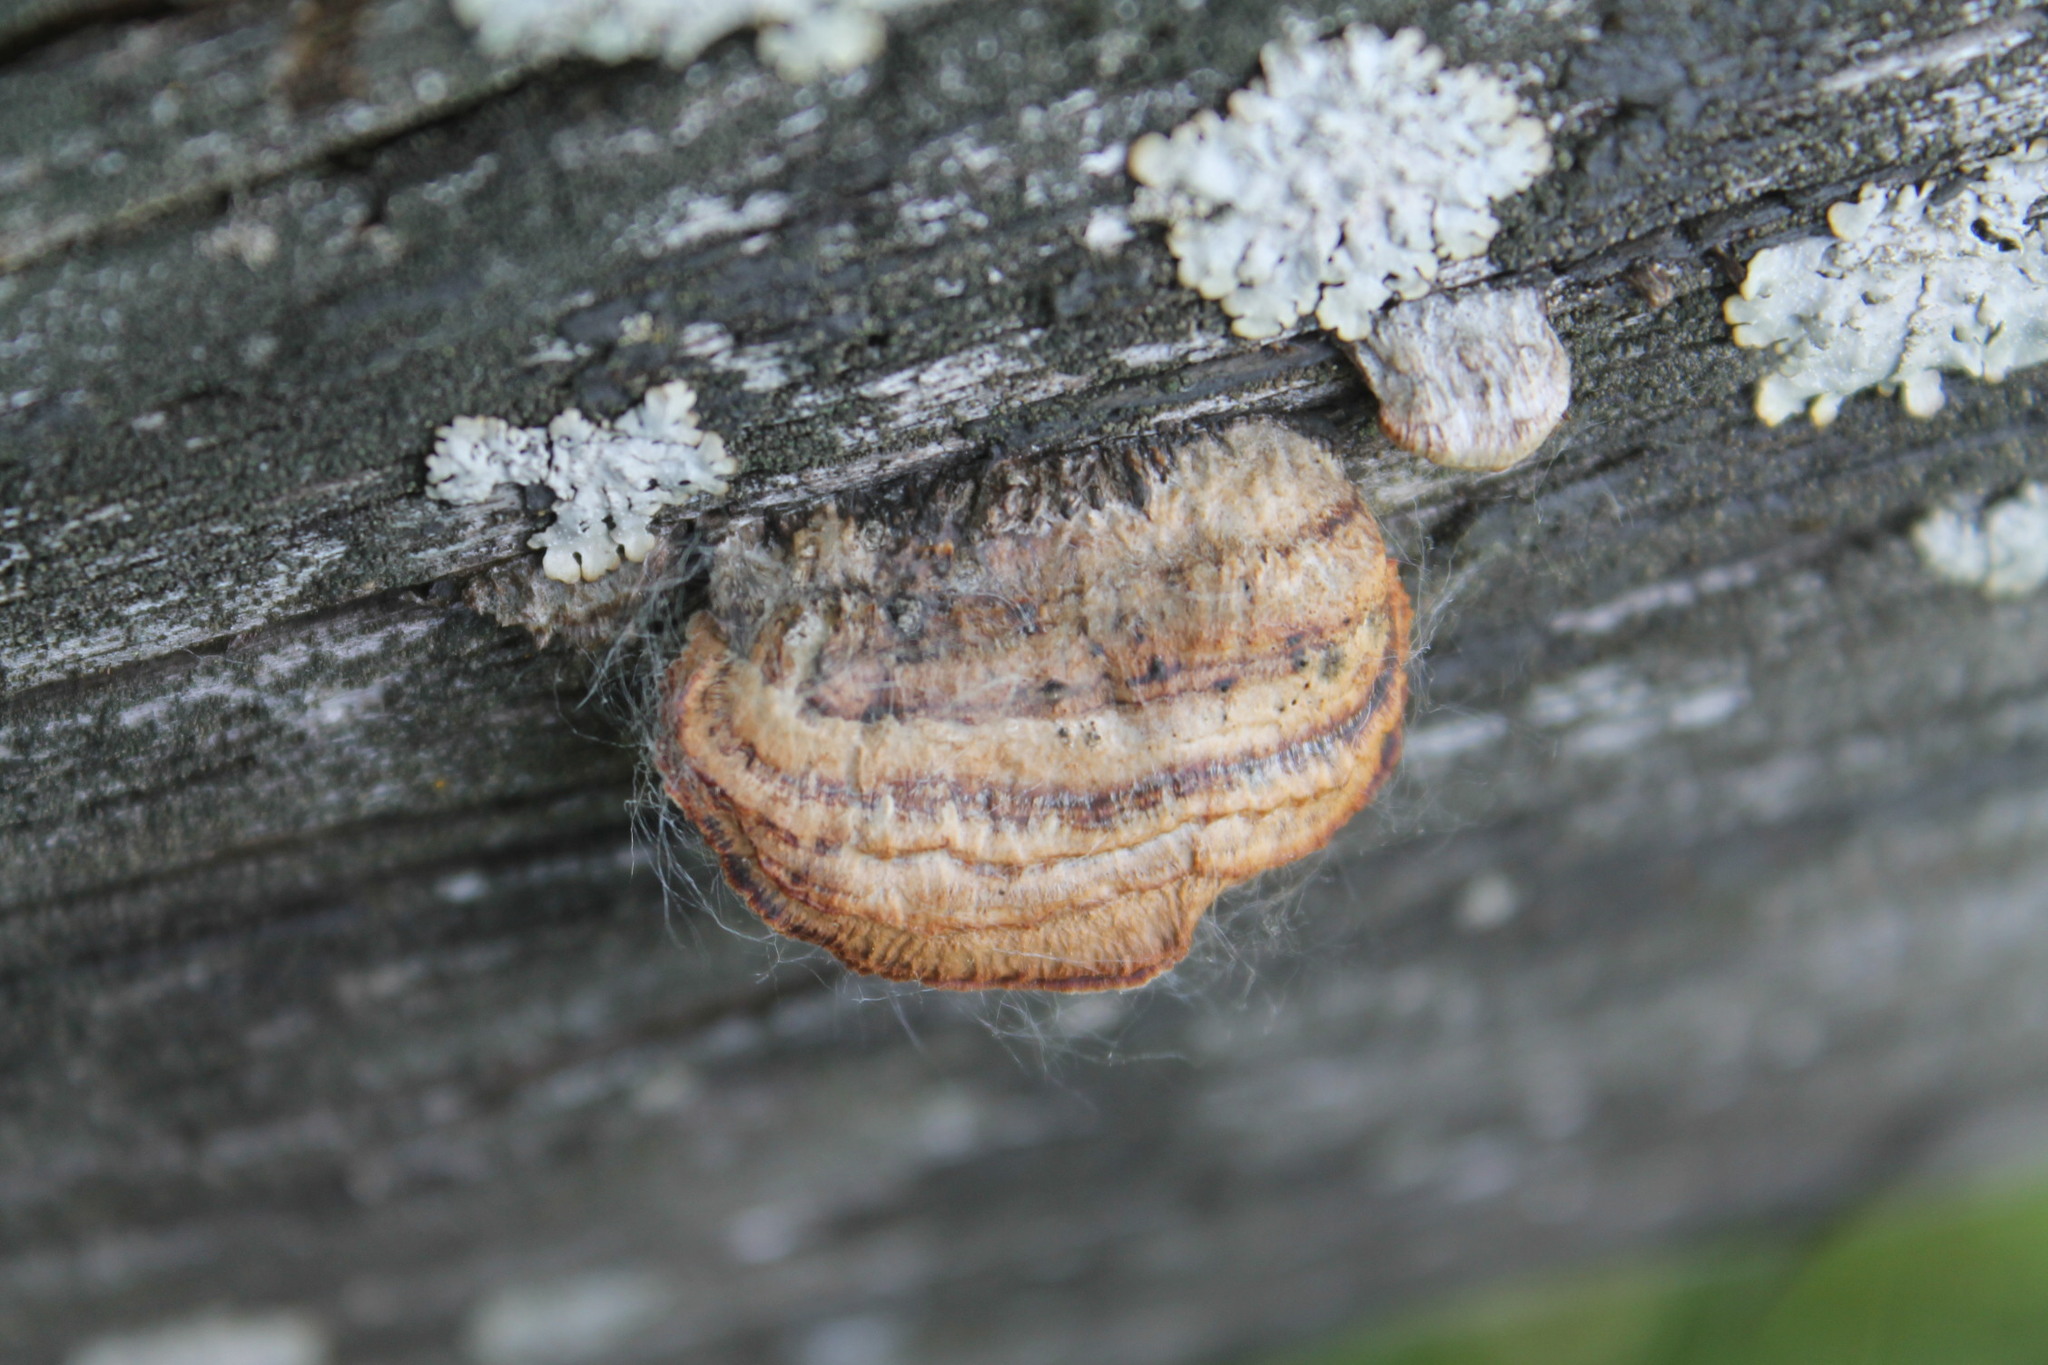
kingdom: Fungi
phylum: Basidiomycota
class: Agaricomycetes
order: Gloeophyllales
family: Gloeophyllaceae
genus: Gloeophyllum
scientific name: Gloeophyllum sepiarium
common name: Conifer mazegill
